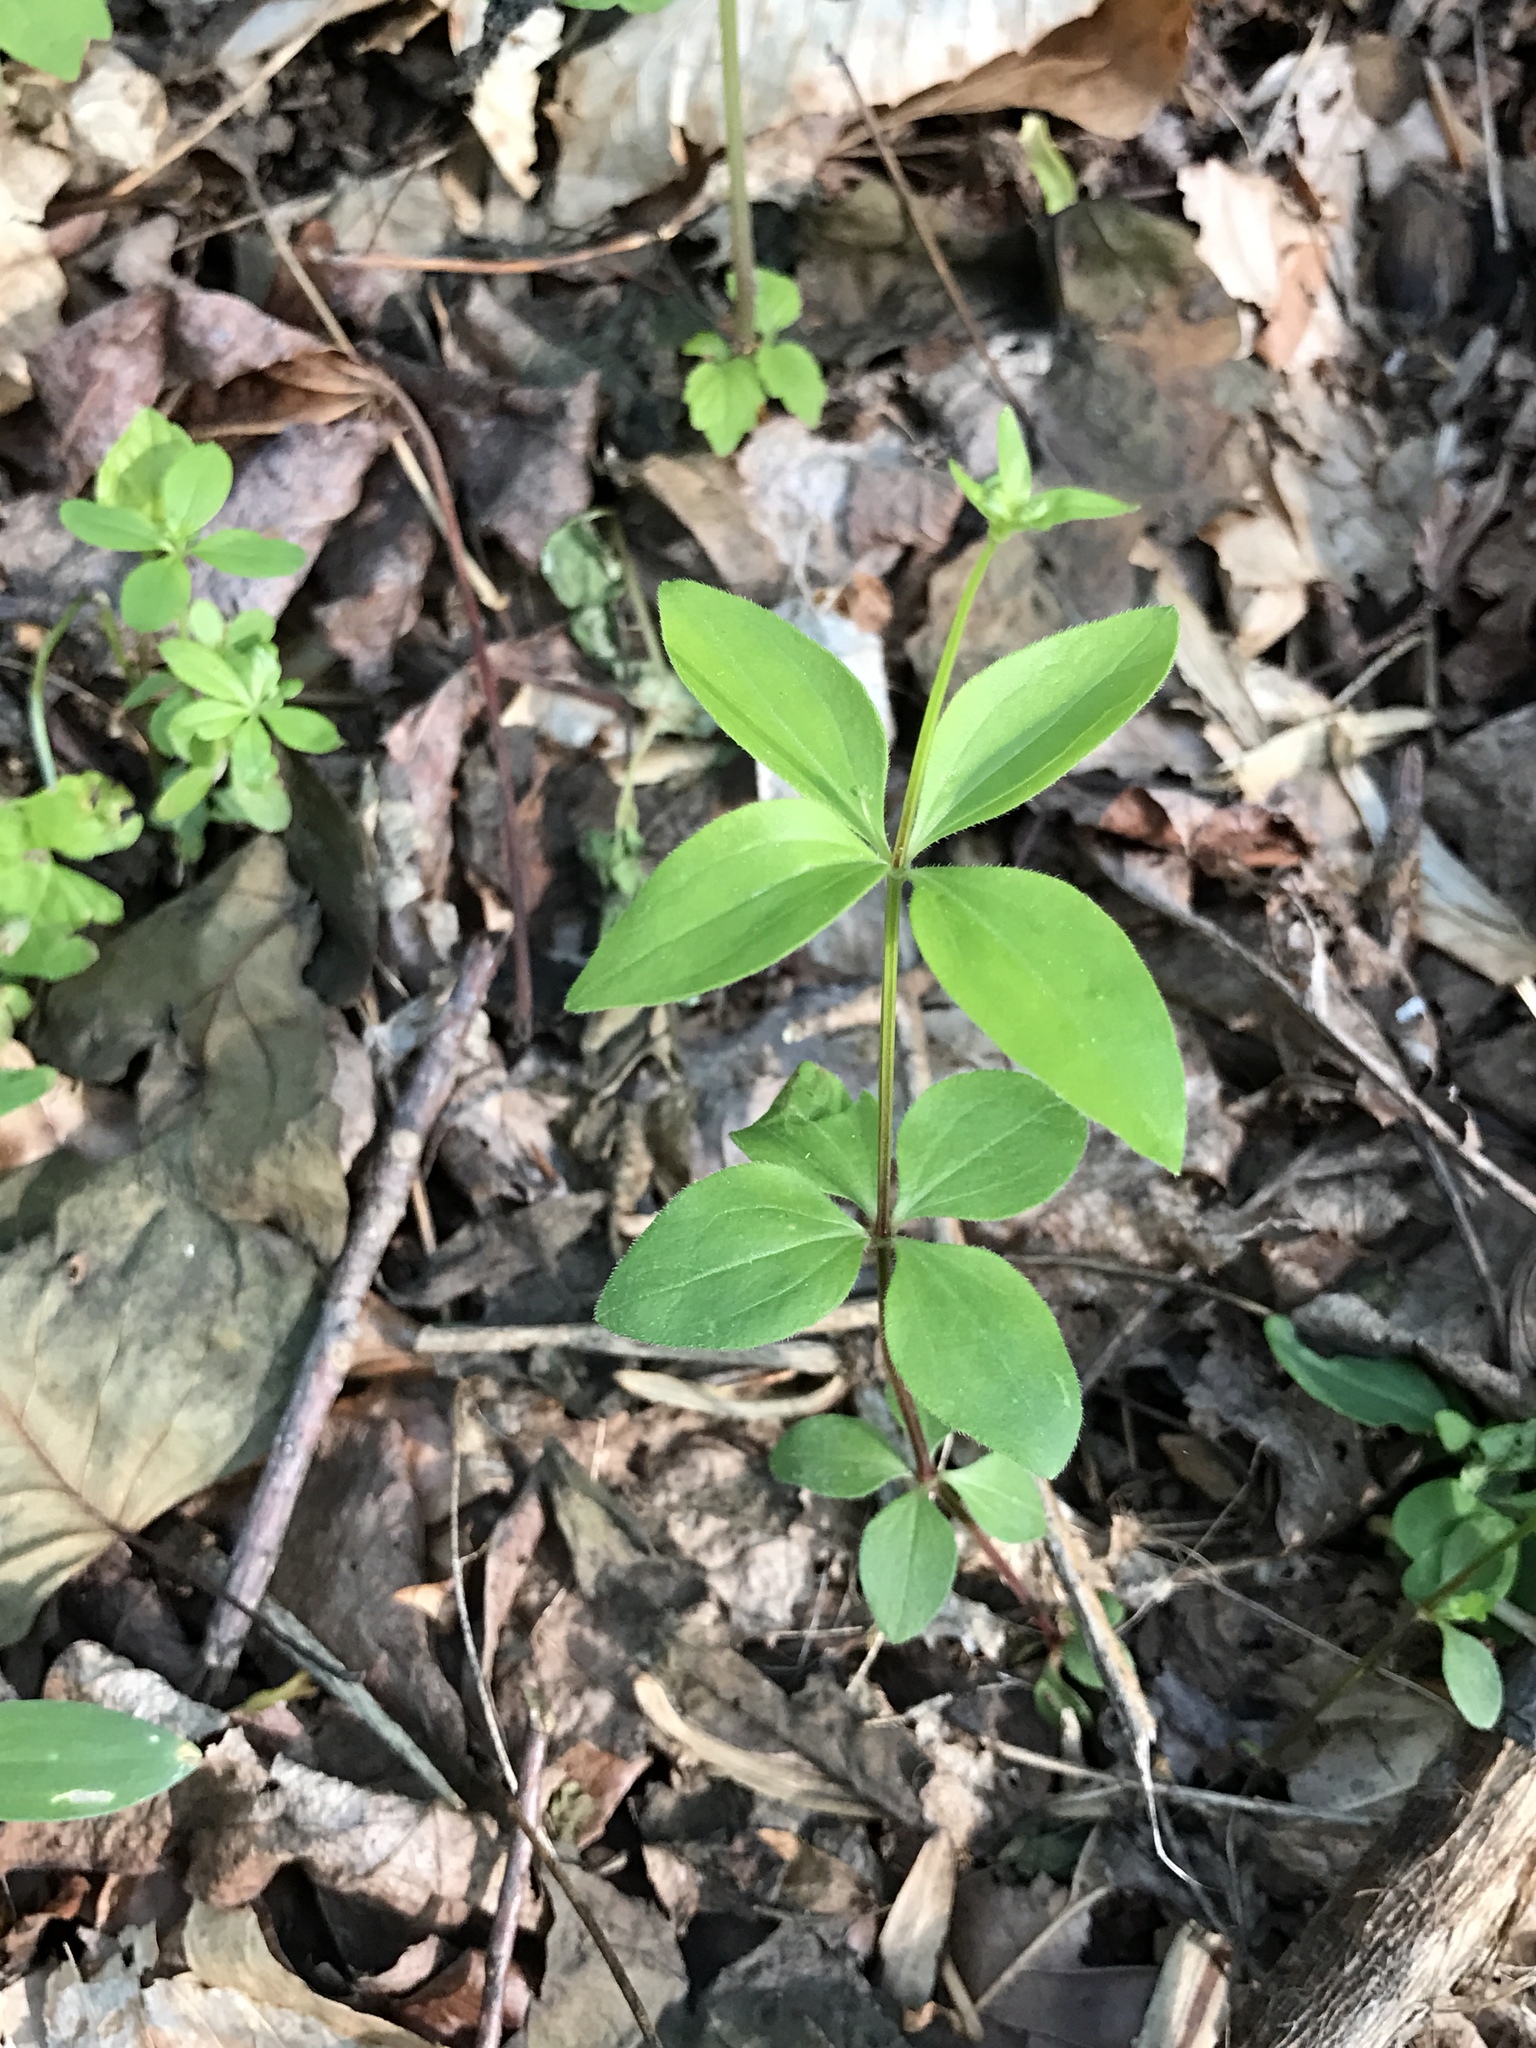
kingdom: Plantae
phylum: Tracheophyta
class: Magnoliopsida
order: Gentianales
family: Rubiaceae
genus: Galium
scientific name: Galium circaezans
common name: Forest bedstraw
